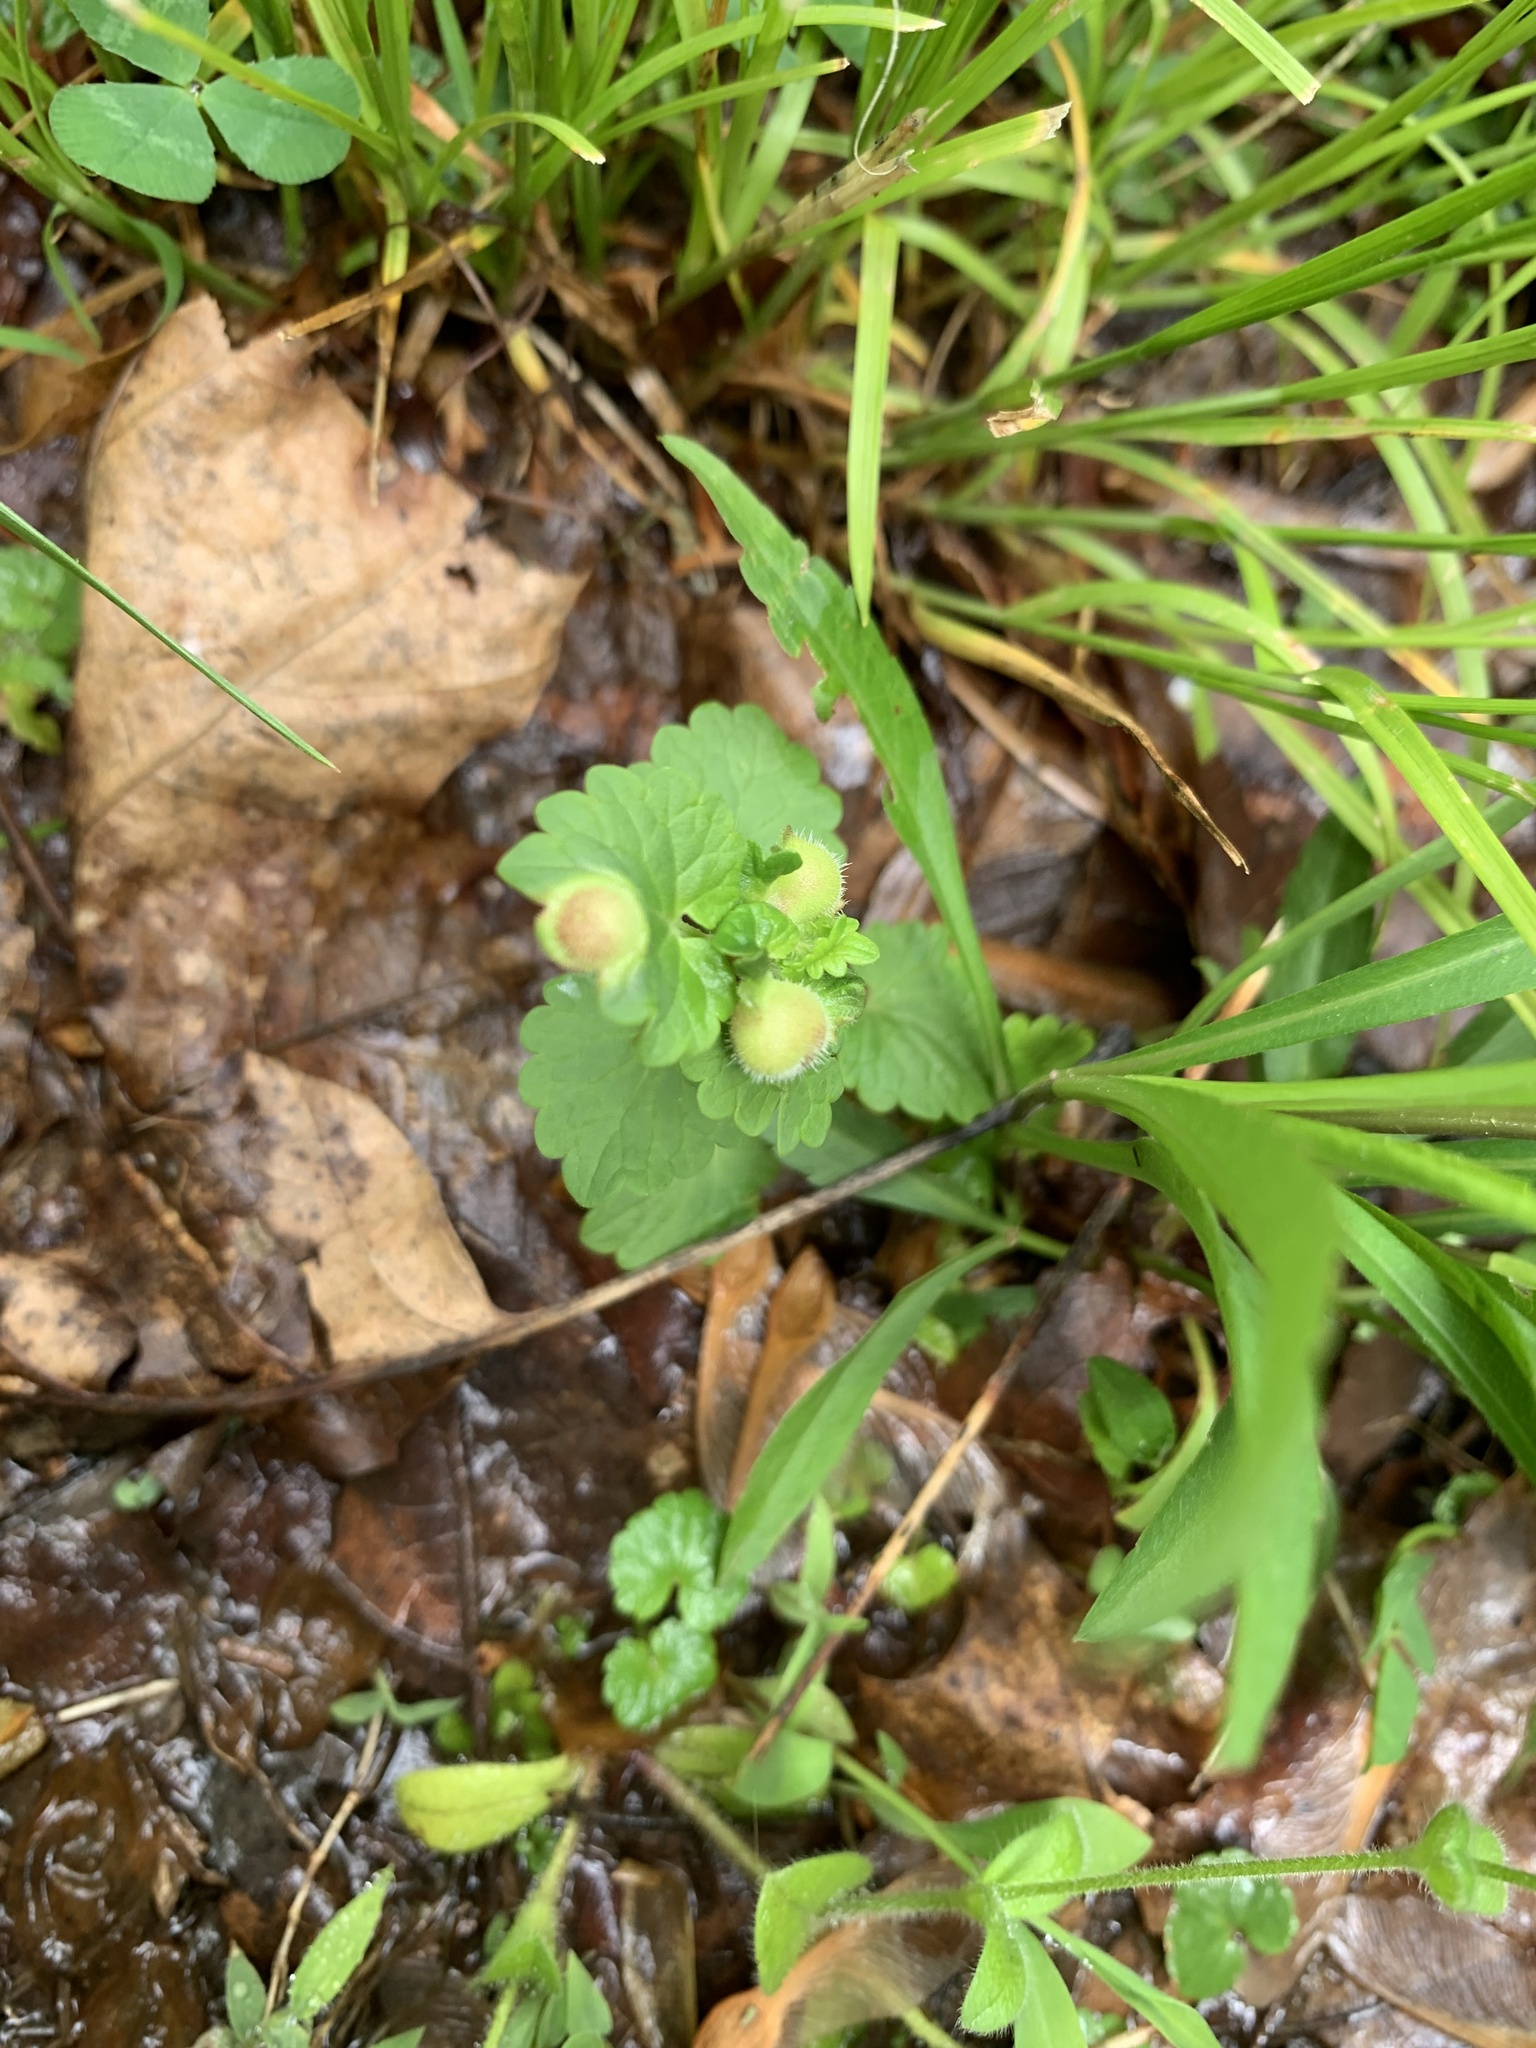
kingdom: Animalia
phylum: Arthropoda
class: Insecta
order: Hymenoptera
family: Cynipidae
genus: Liposthenes
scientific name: Liposthenes glechomae
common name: Gall wasp
